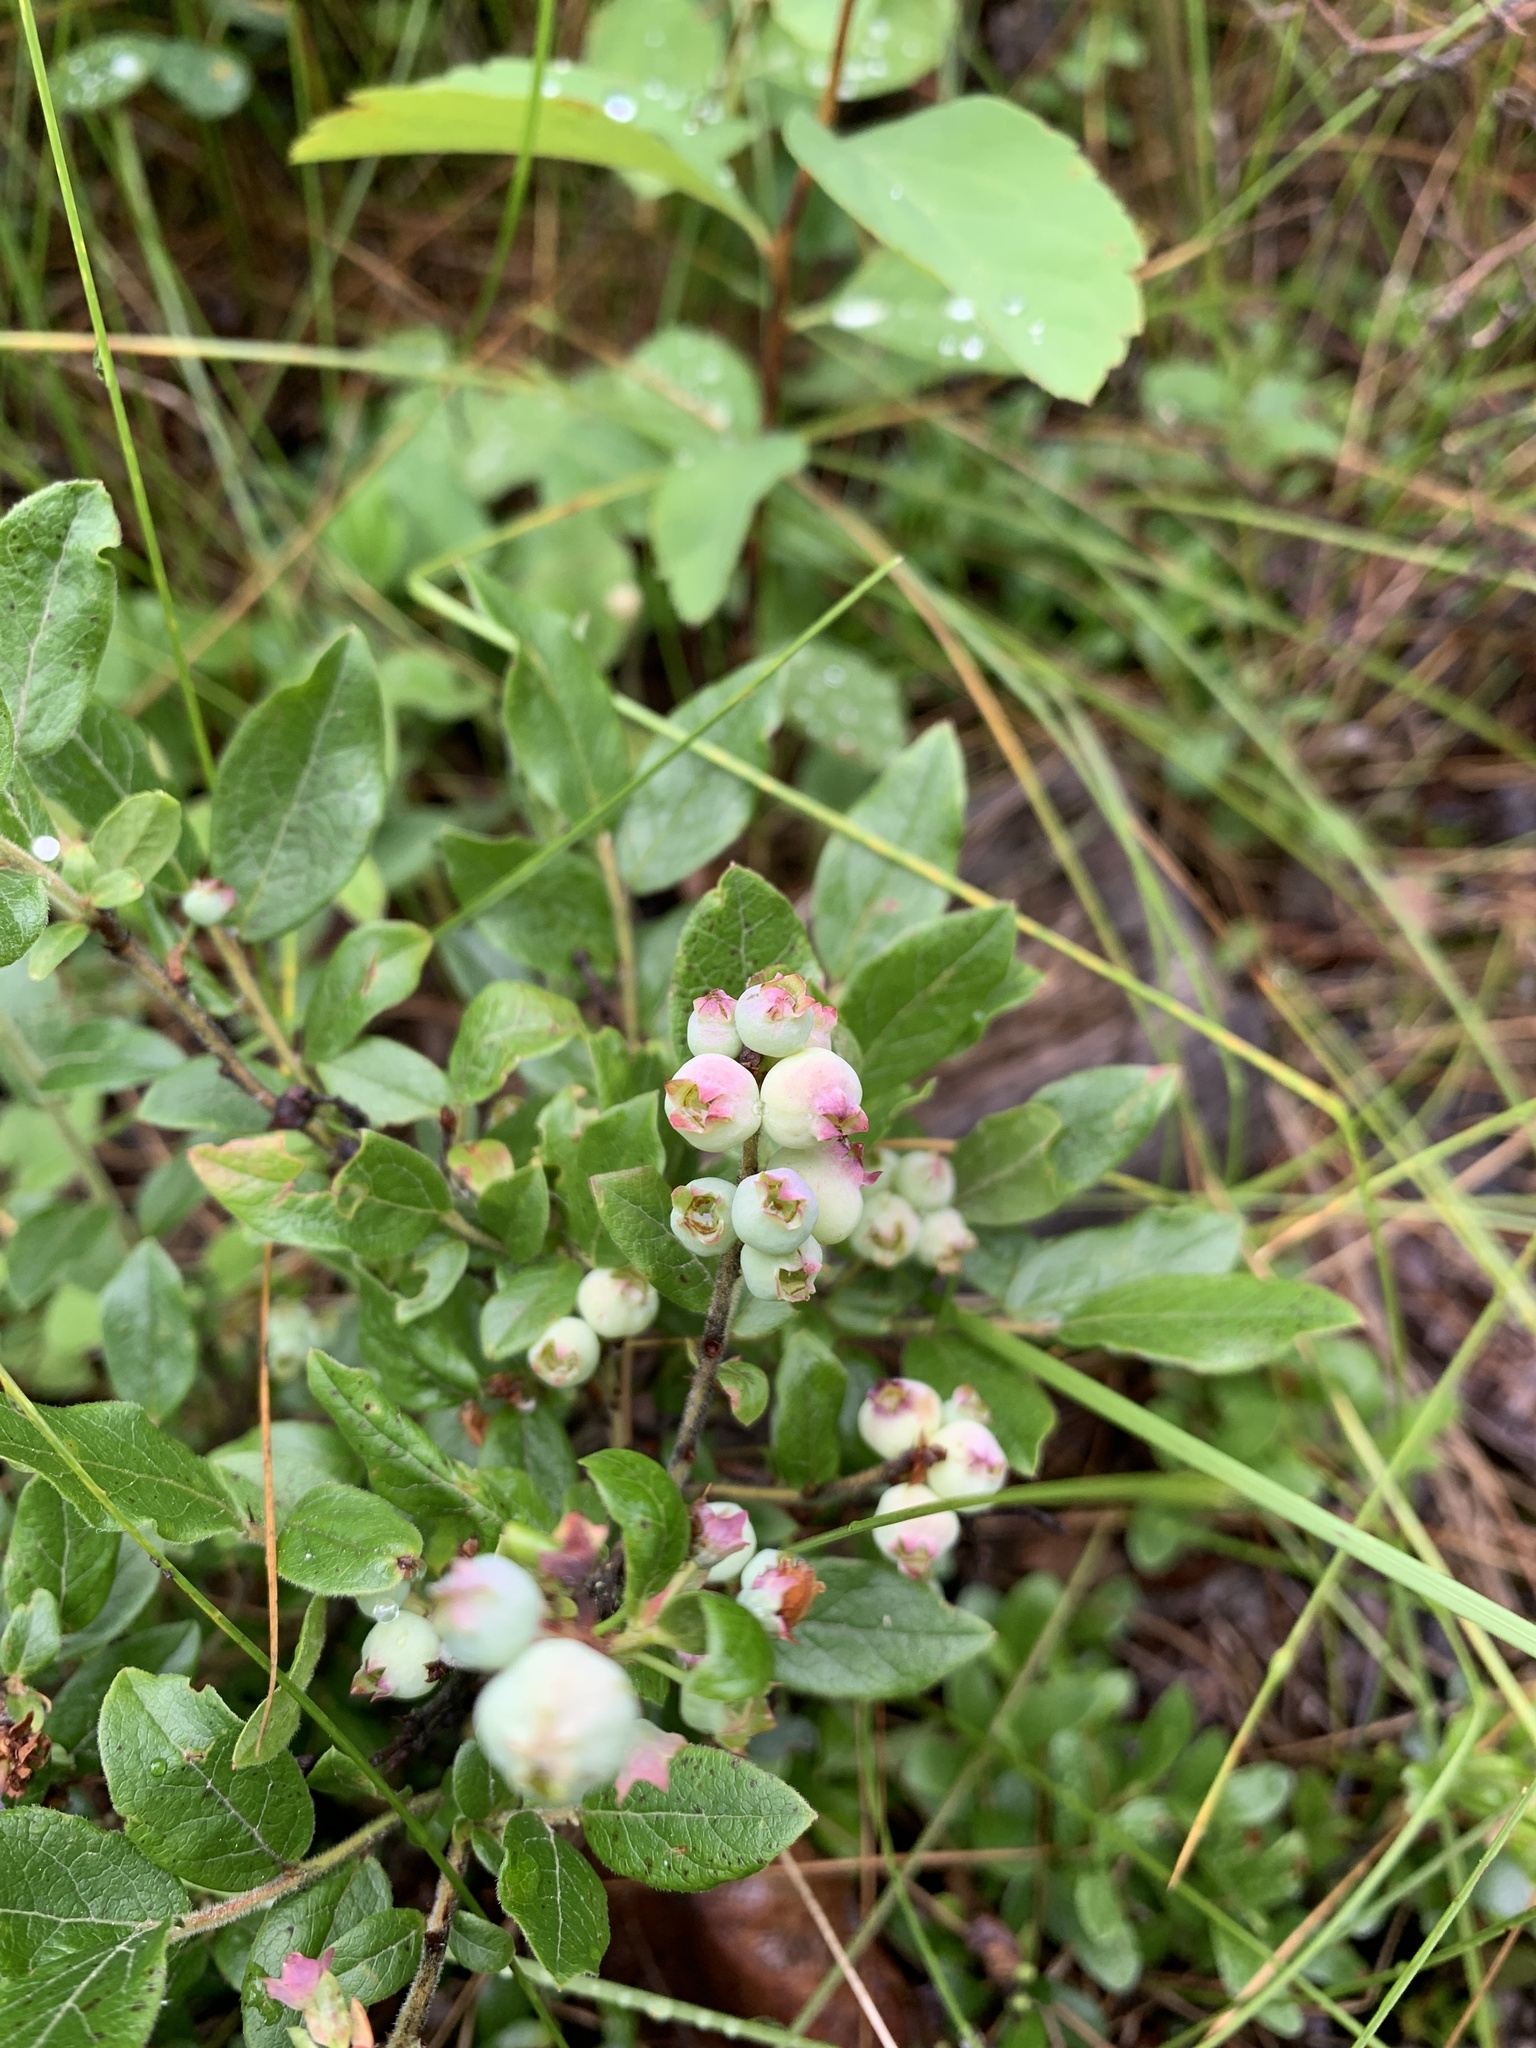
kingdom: Plantae
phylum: Tracheophyta
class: Magnoliopsida
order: Ericales
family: Ericaceae
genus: Vaccinium
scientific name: Vaccinium myrtilloides
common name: Canada blueberry
